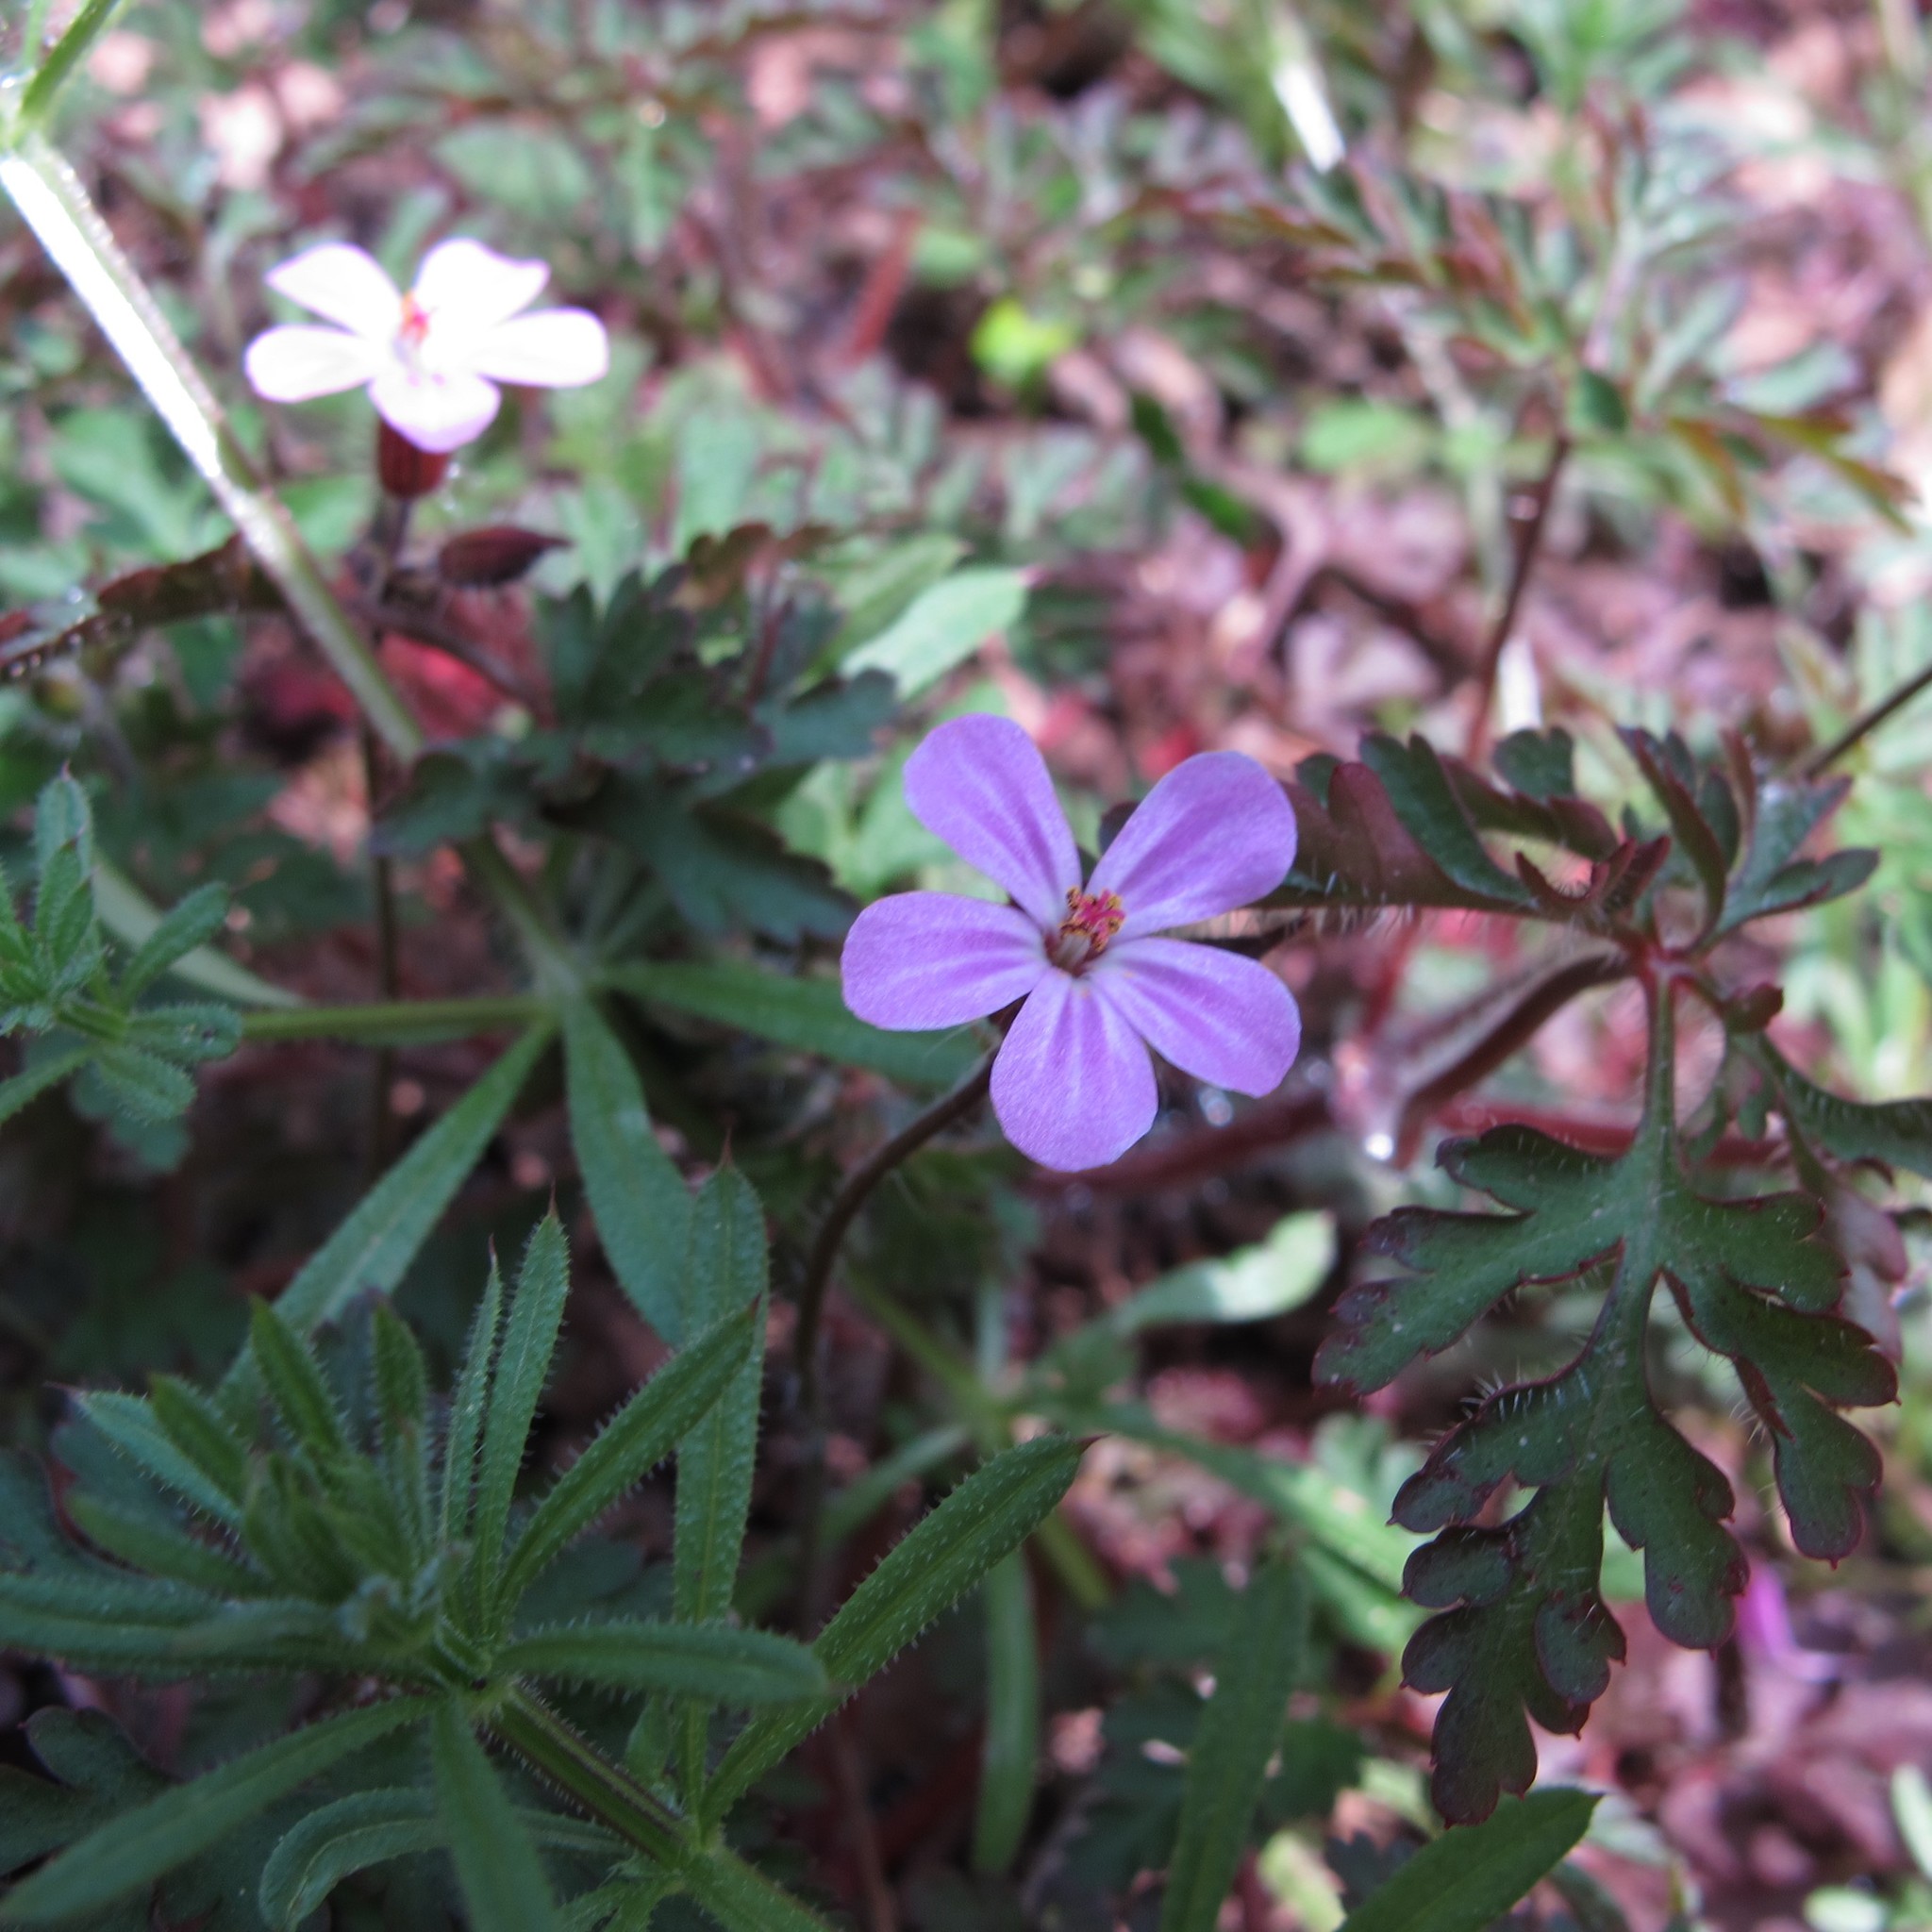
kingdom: Plantae
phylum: Tracheophyta
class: Magnoliopsida
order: Geraniales
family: Geraniaceae
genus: Geranium
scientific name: Geranium robertianum
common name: Herb-robert
